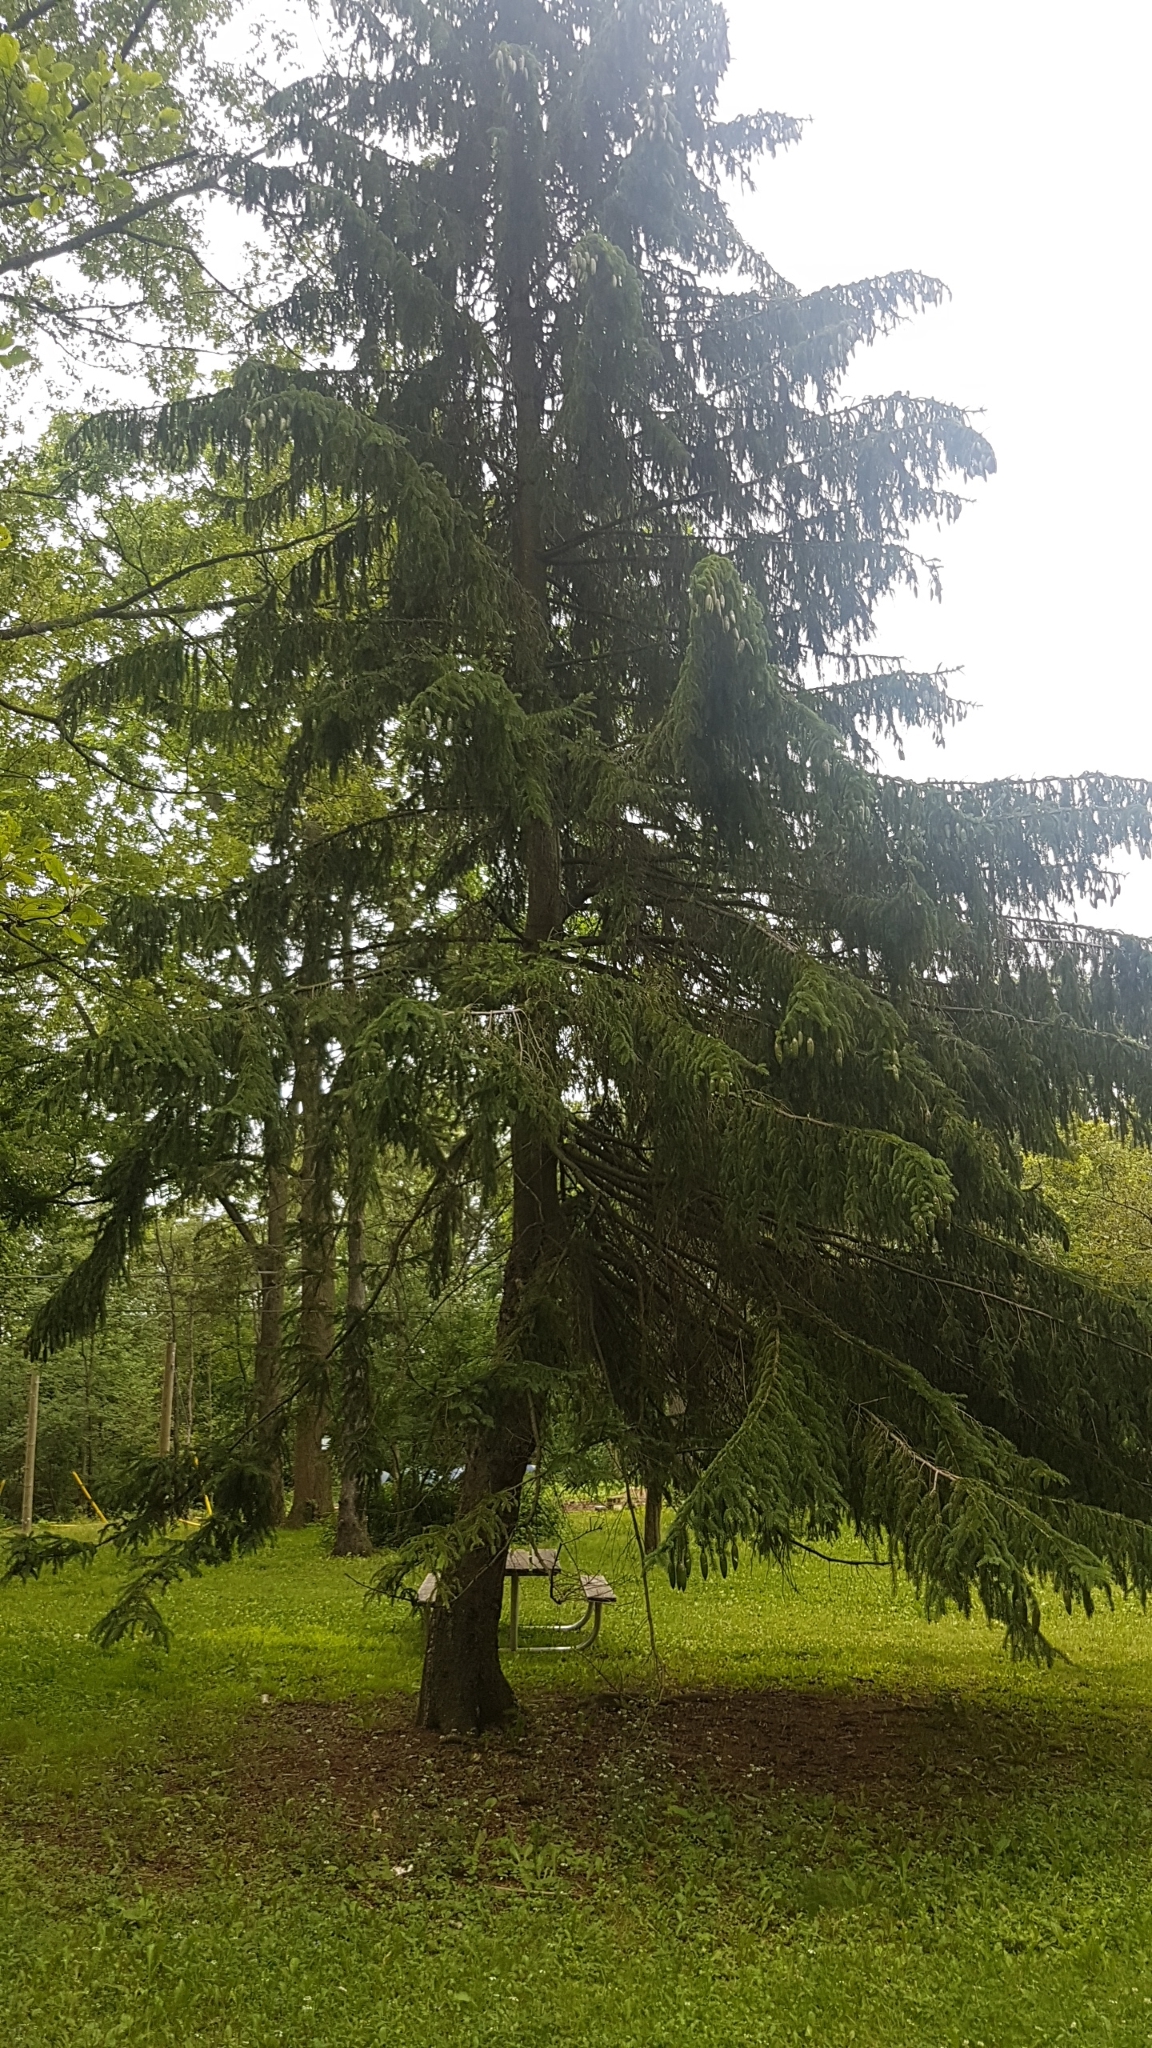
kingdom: Plantae
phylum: Tracheophyta
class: Pinopsida
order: Pinales
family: Pinaceae
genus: Picea
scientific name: Picea abies
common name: Norway spruce
